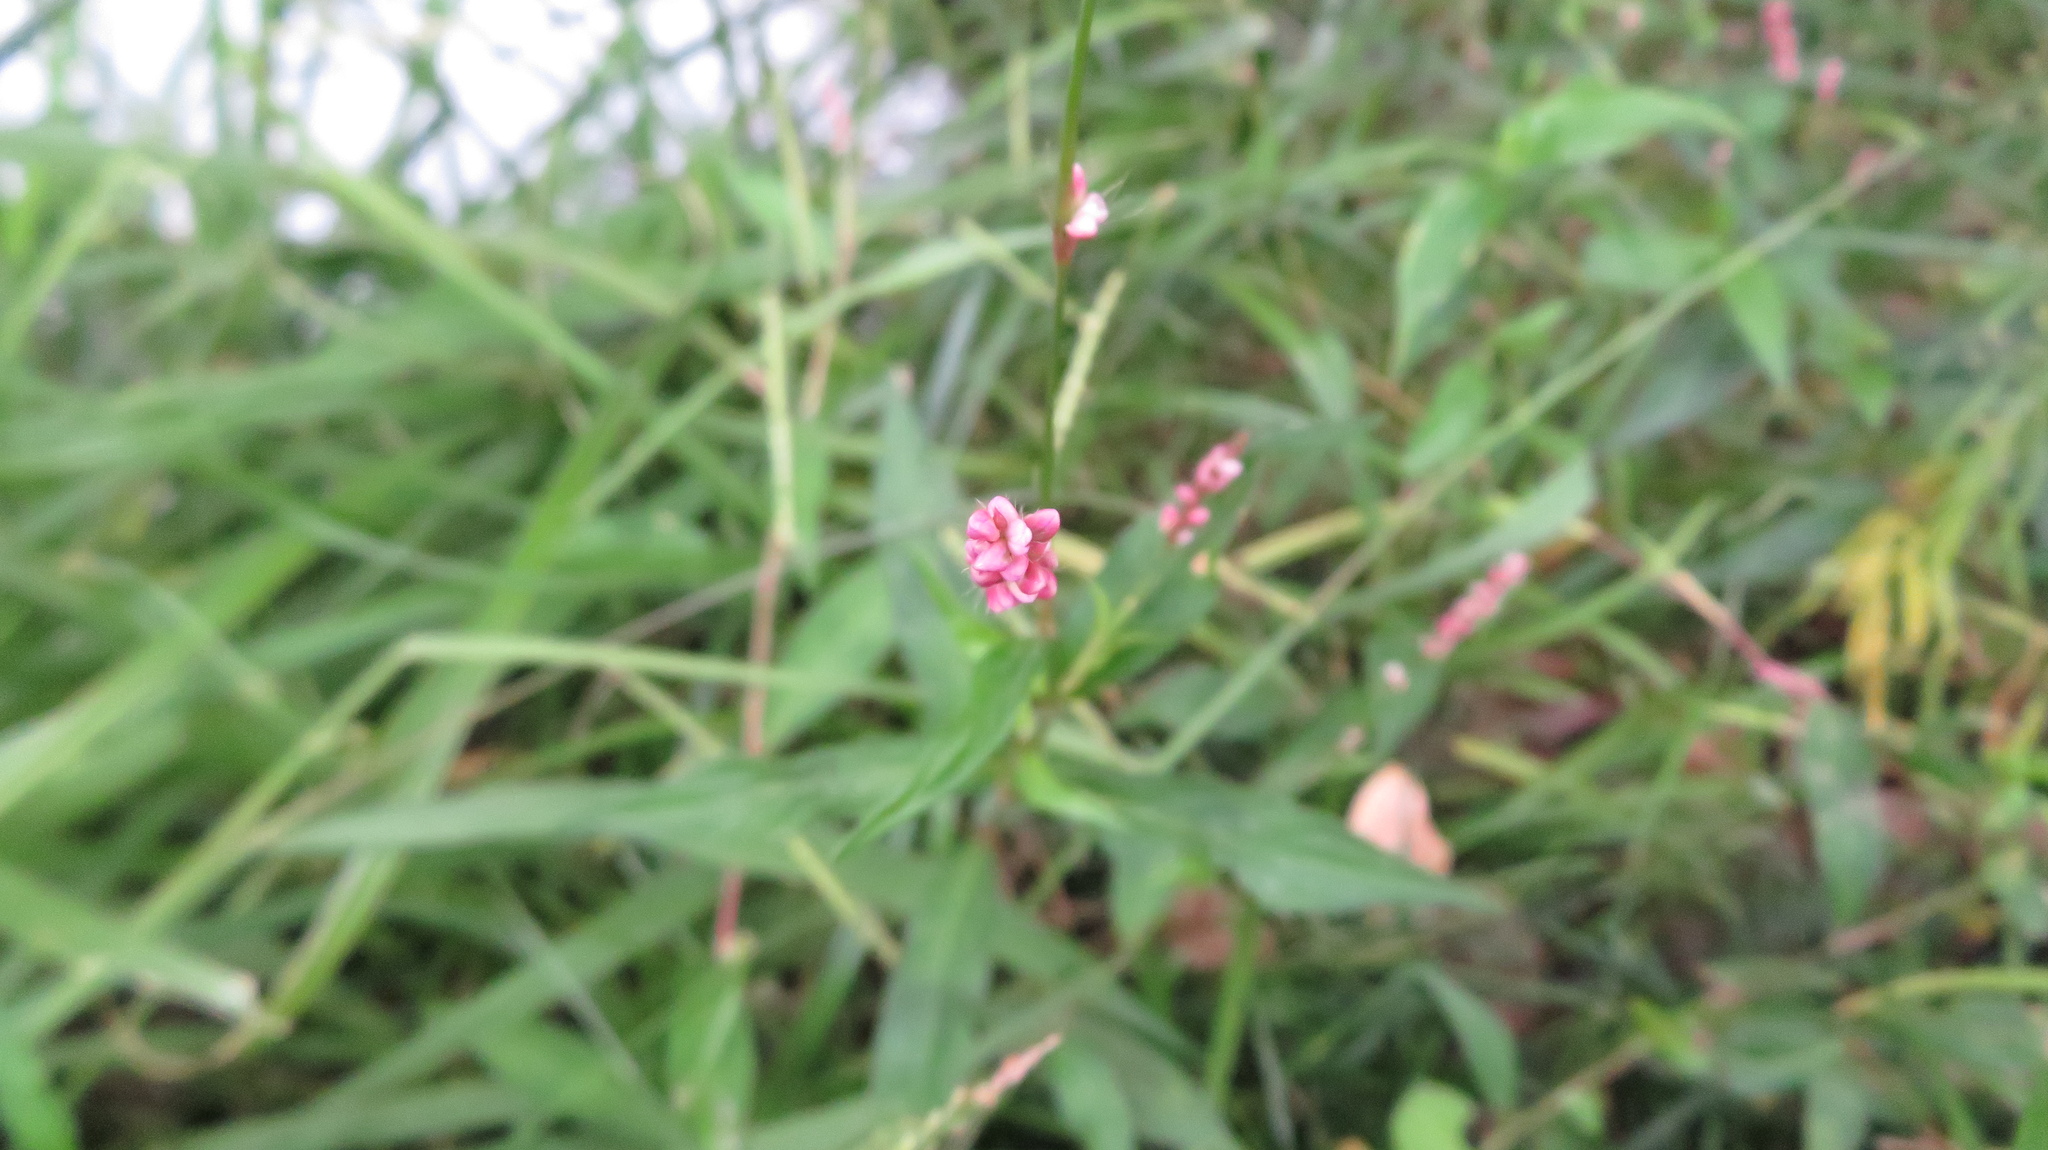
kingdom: Plantae
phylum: Tracheophyta
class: Magnoliopsida
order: Caryophyllales
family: Polygonaceae
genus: Persicaria
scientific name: Persicaria longiseta
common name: Bristly lady's-thumb
